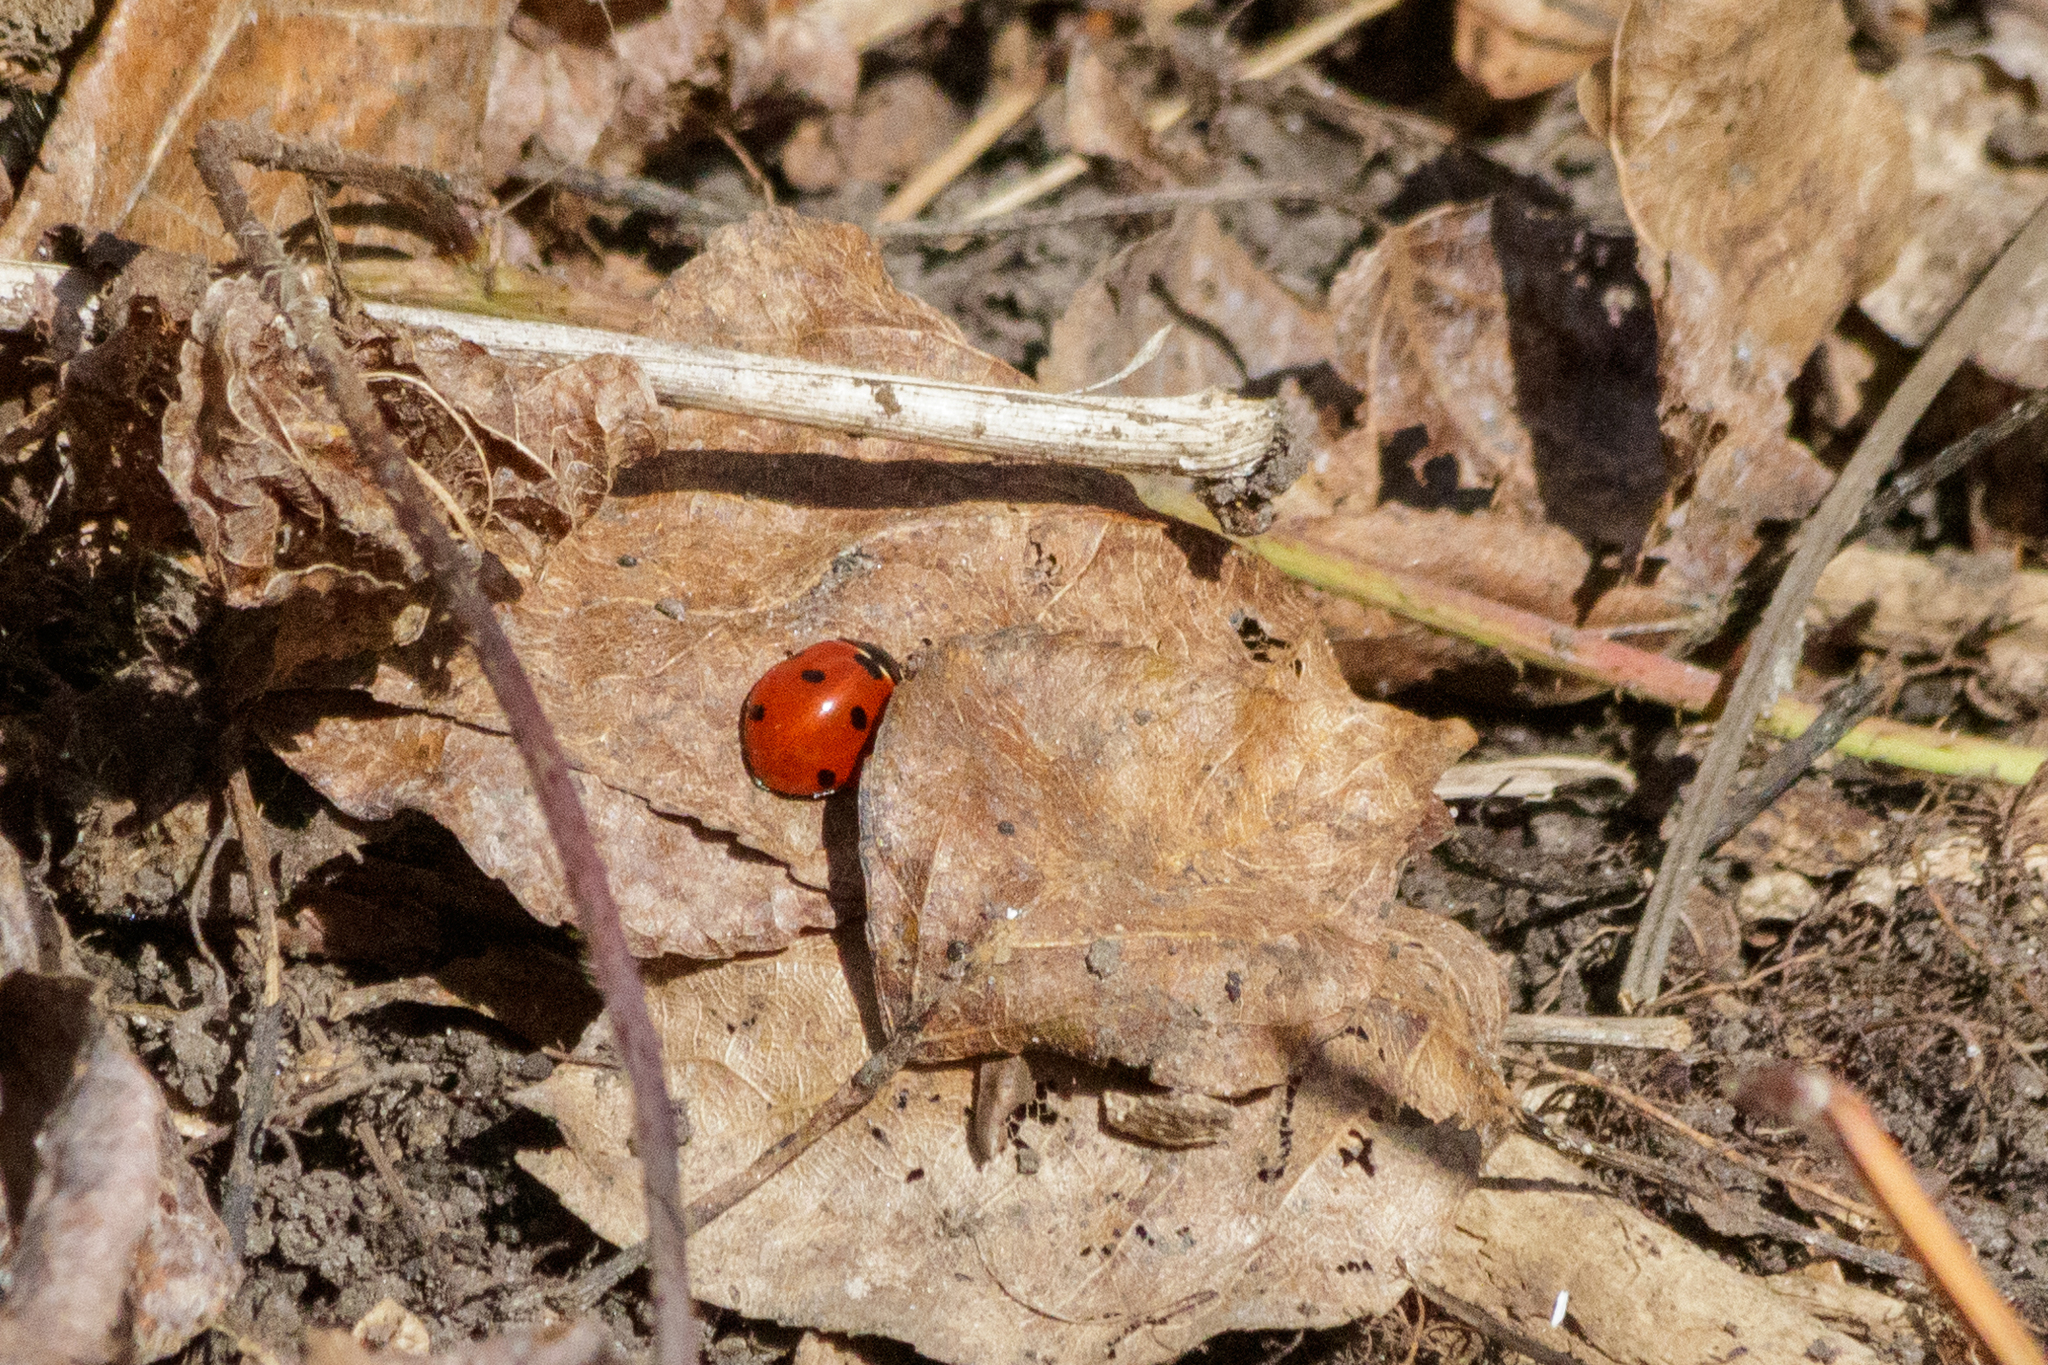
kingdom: Animalia
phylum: Arthropoda
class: Insecta
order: Coleoptera
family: Coccinellidae
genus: Coccinella
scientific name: Coccinella septempunctata
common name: Sevenspotted lady beetle
